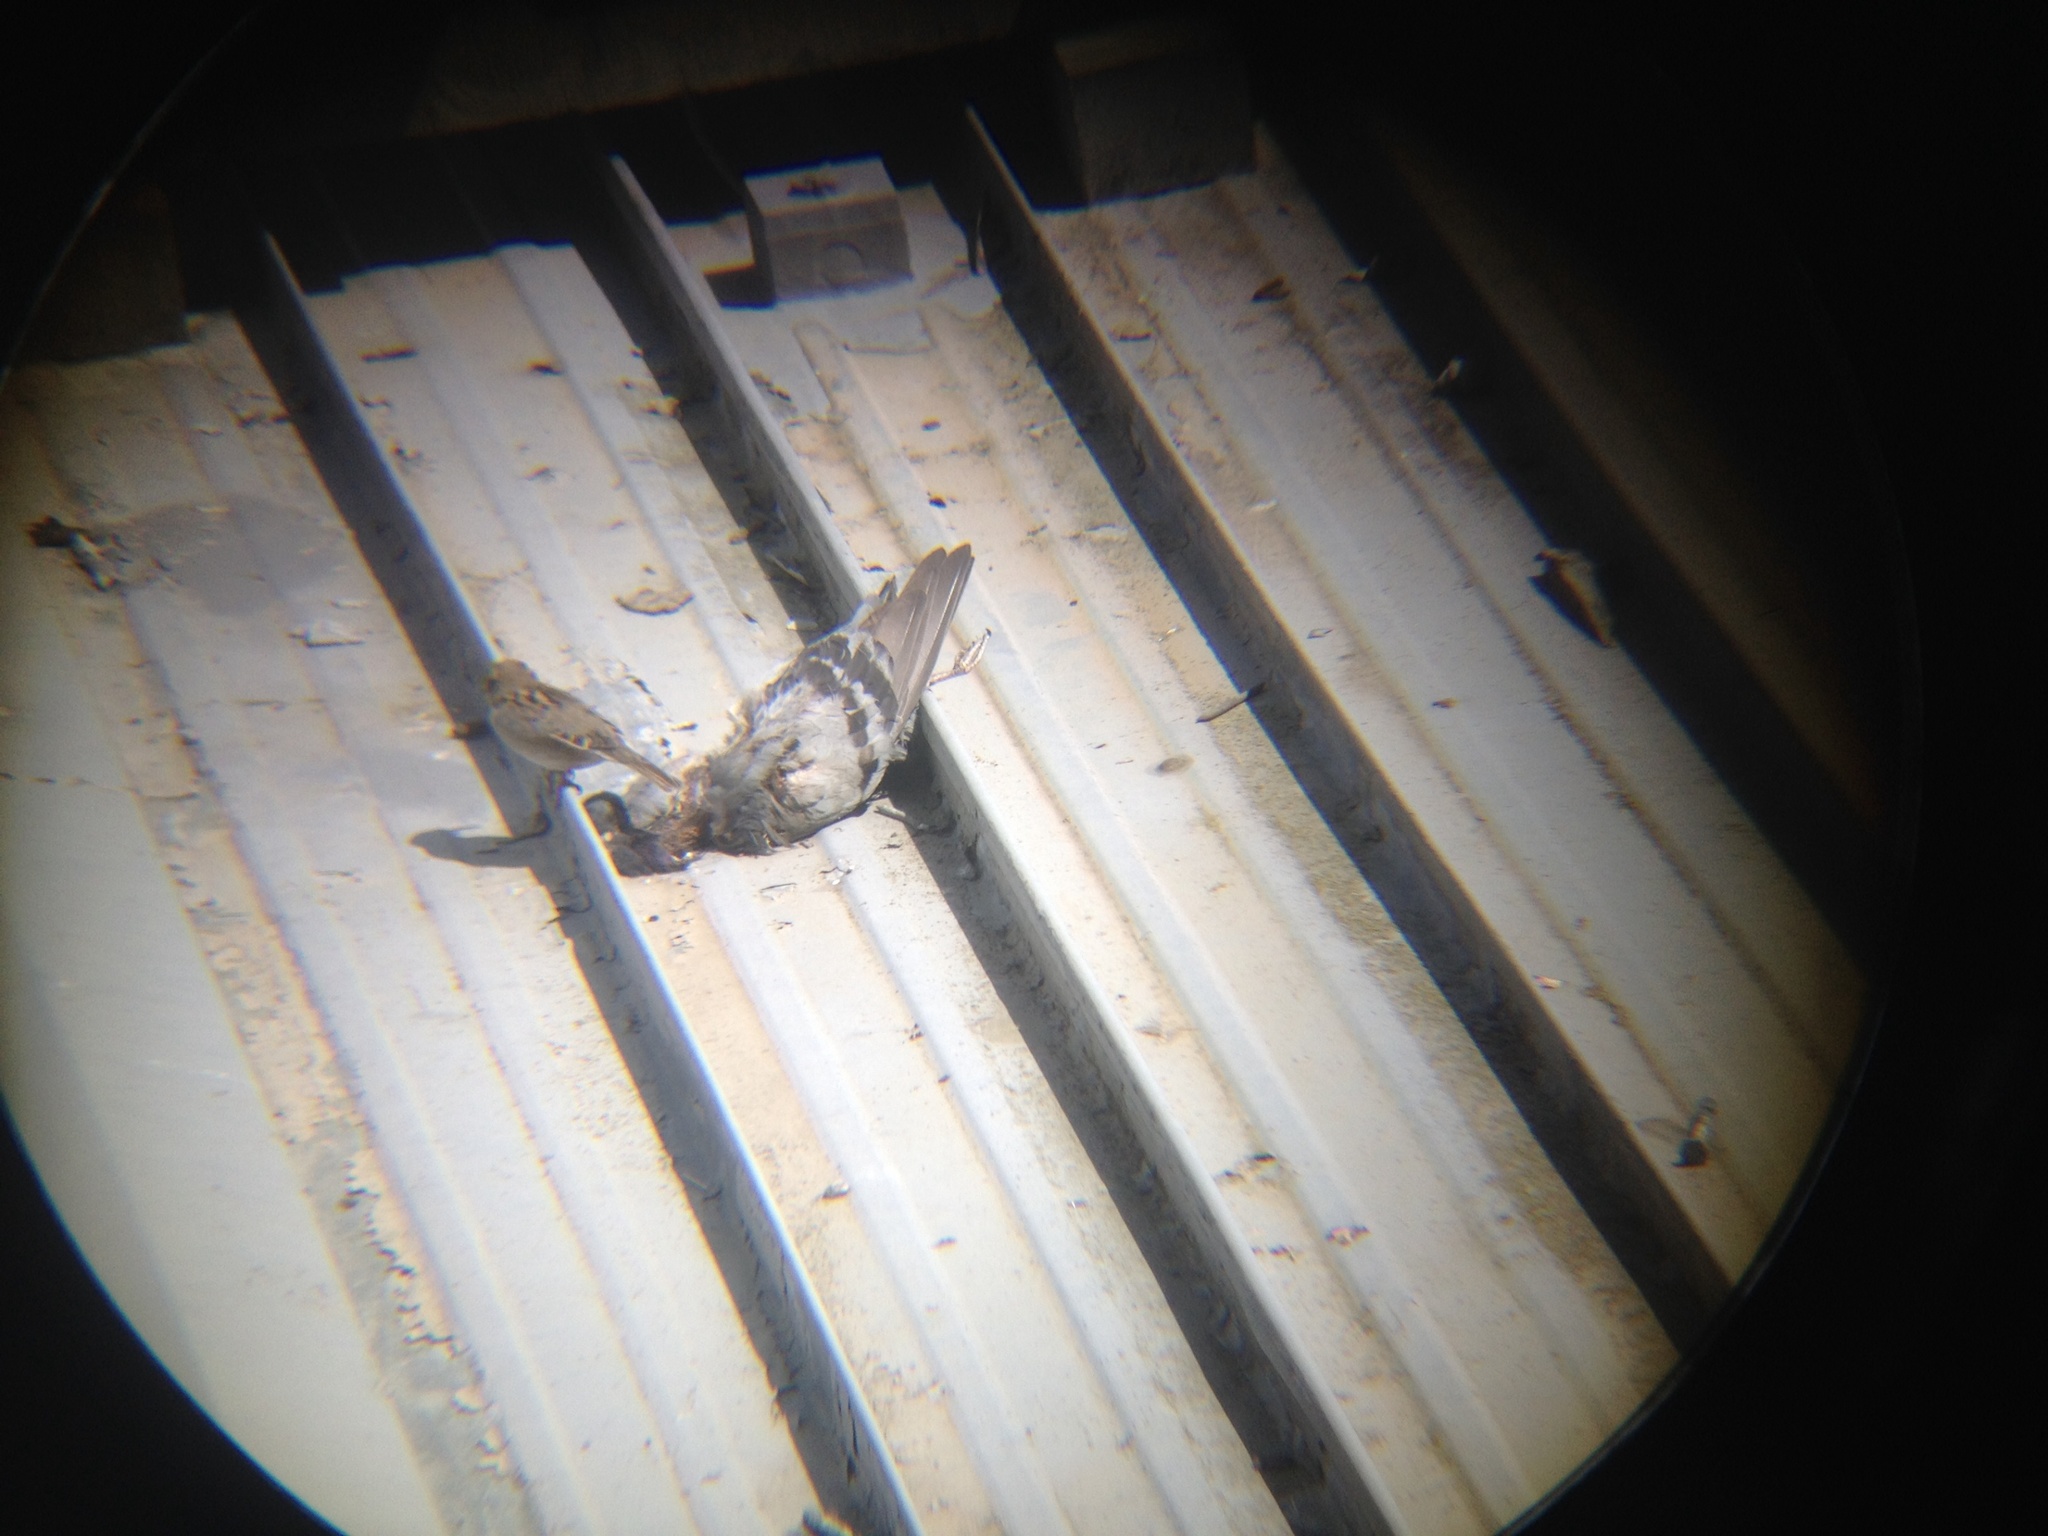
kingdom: Animalia
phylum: Chordata
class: Aves
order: Passeriformes
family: Passeridae
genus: Passer
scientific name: Passer domesticus
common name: House sparrow
